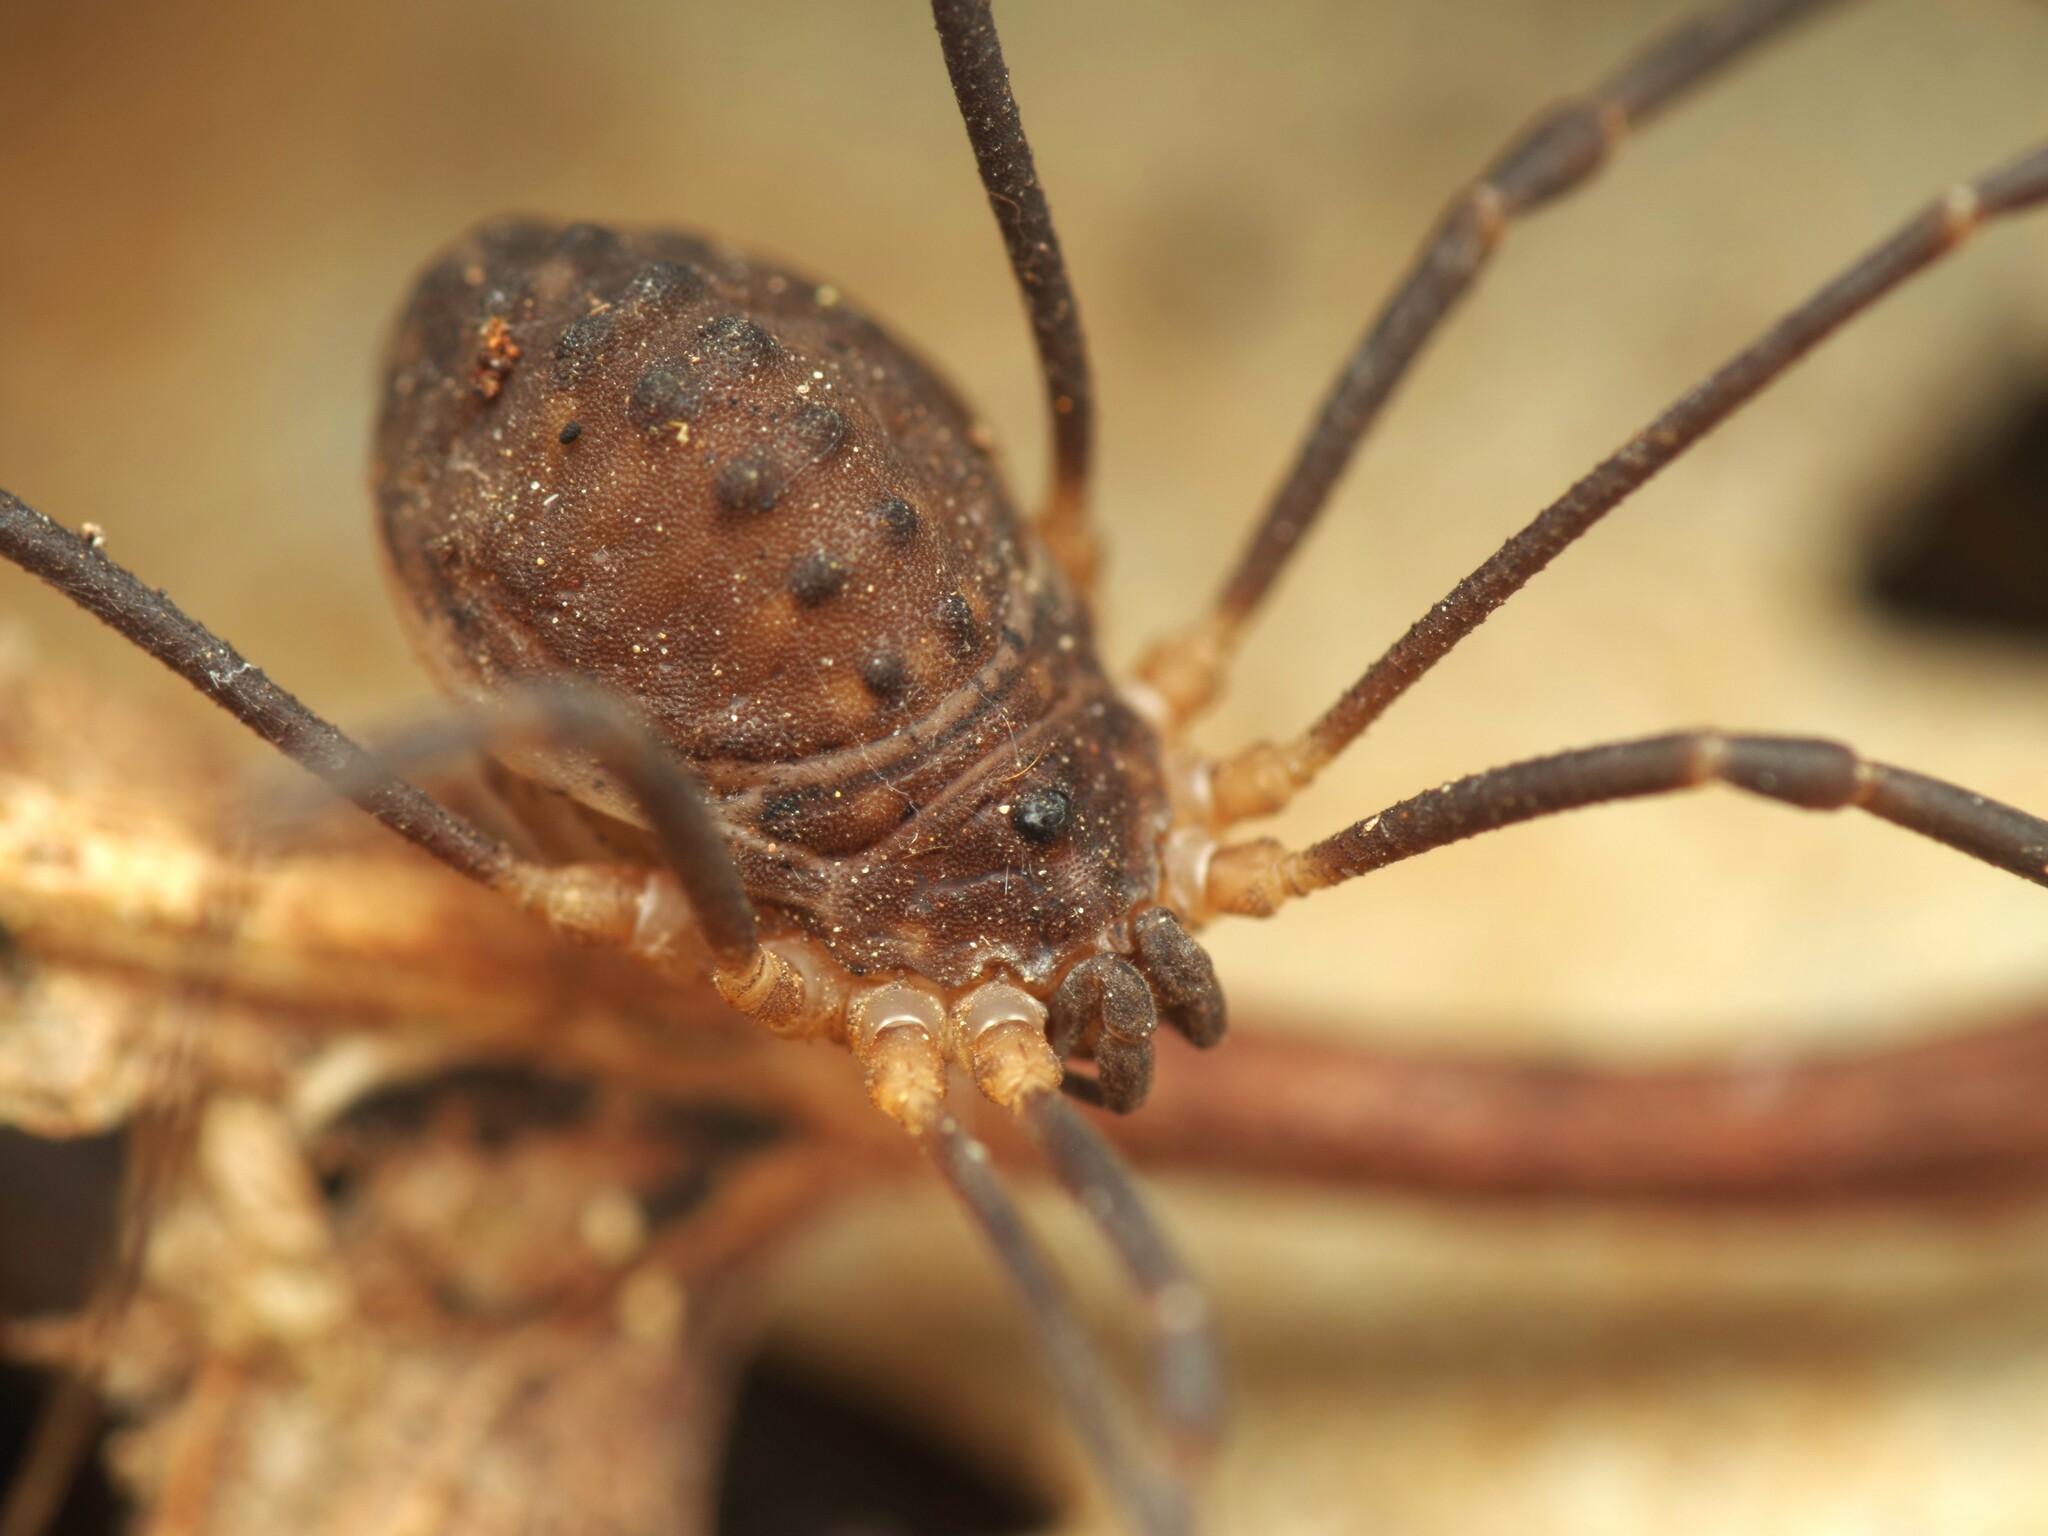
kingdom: Animalia
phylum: Arthropoda
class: Arachnida
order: Opiliones
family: Sclerosomatidae
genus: Astrobunus
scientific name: Astrobunus grallator
